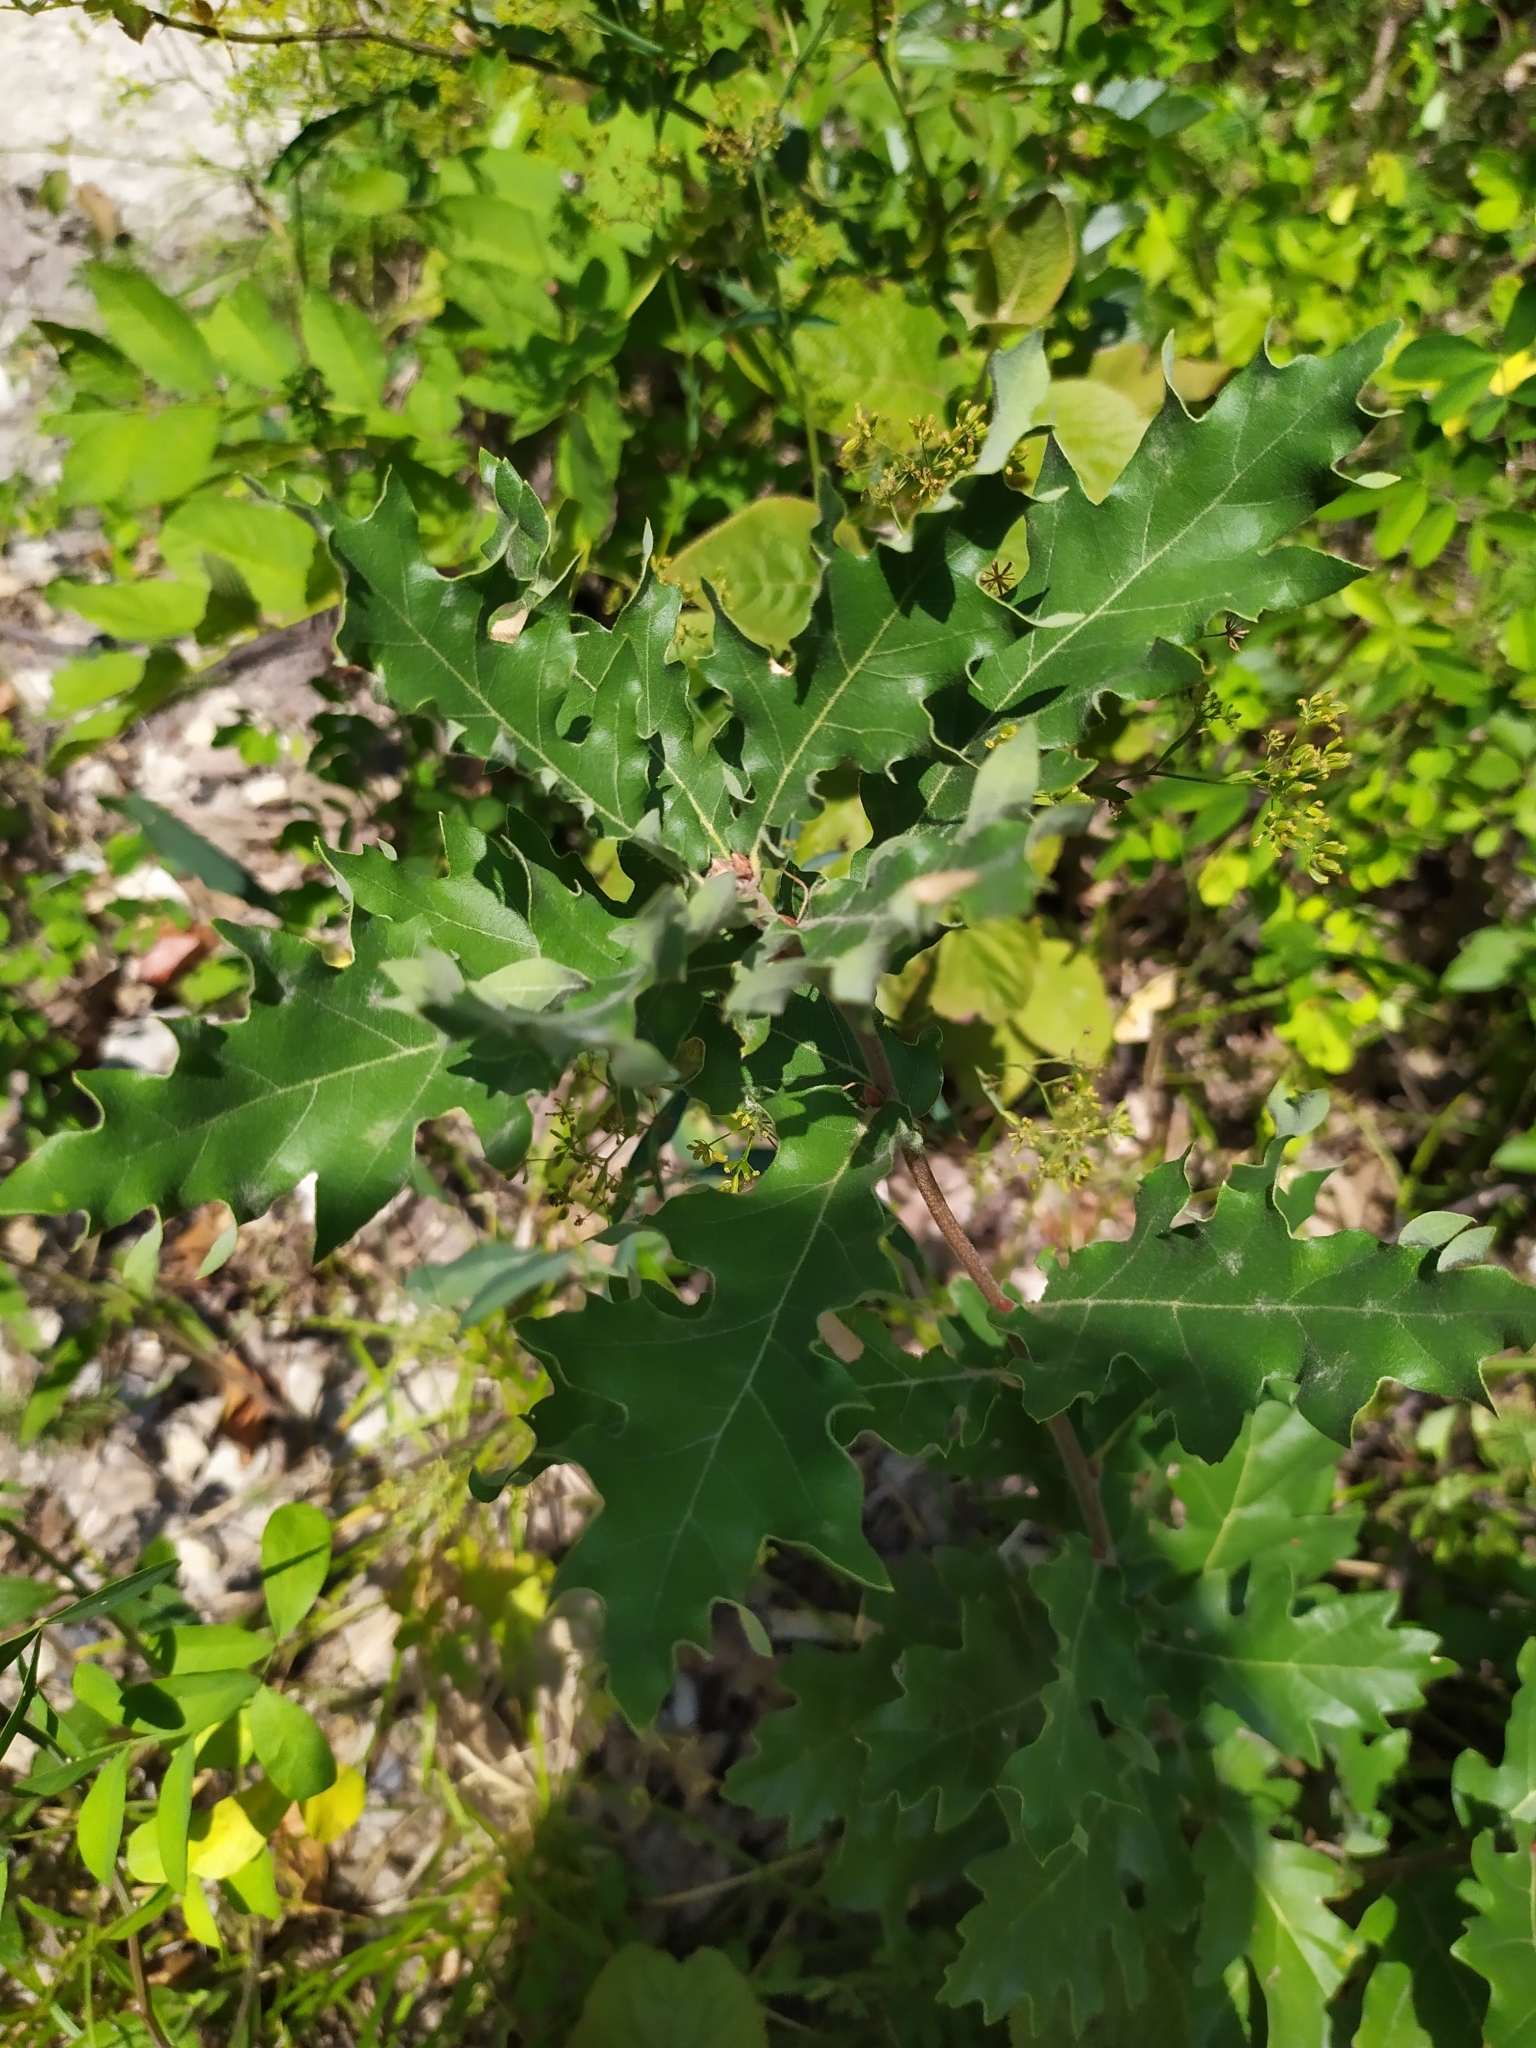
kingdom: Plantae
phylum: Tracheophyta
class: Magnoliopsida
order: Fagales
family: Fagaceae
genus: Quercus
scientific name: Quercus cerris
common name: Turkey oak
